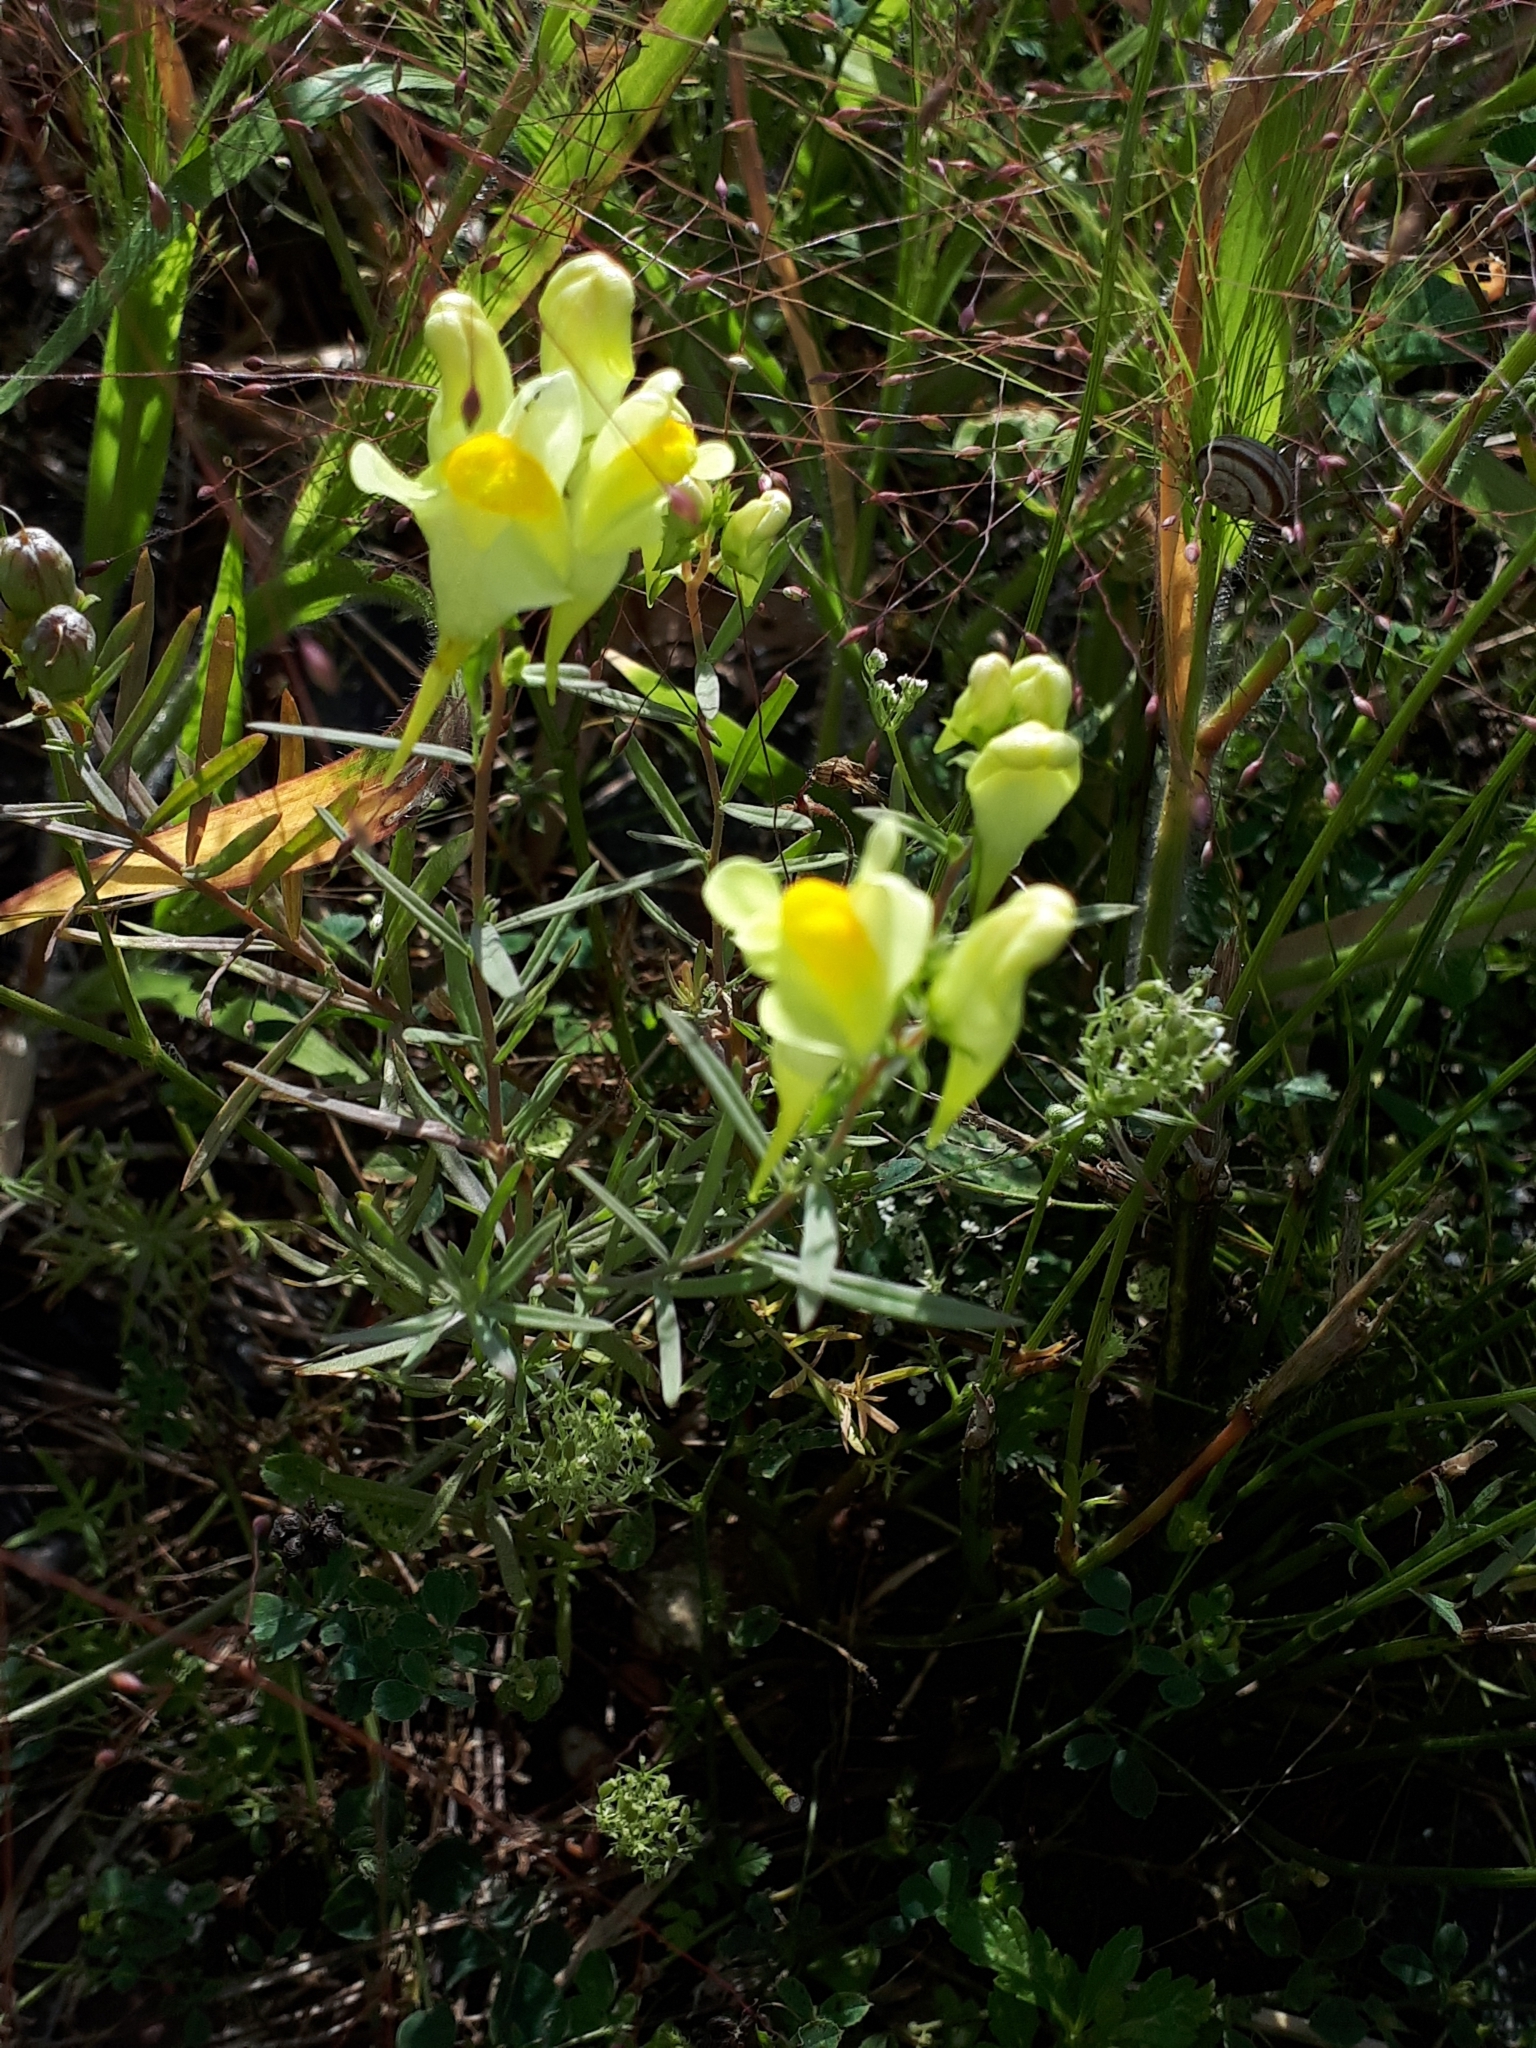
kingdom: Plantae
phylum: Tracheophyta
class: Magnoliopsida
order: Lamiales
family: Plantaginaceae
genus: Linaria
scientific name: Linaria vulgaris
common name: Butter and eggs
